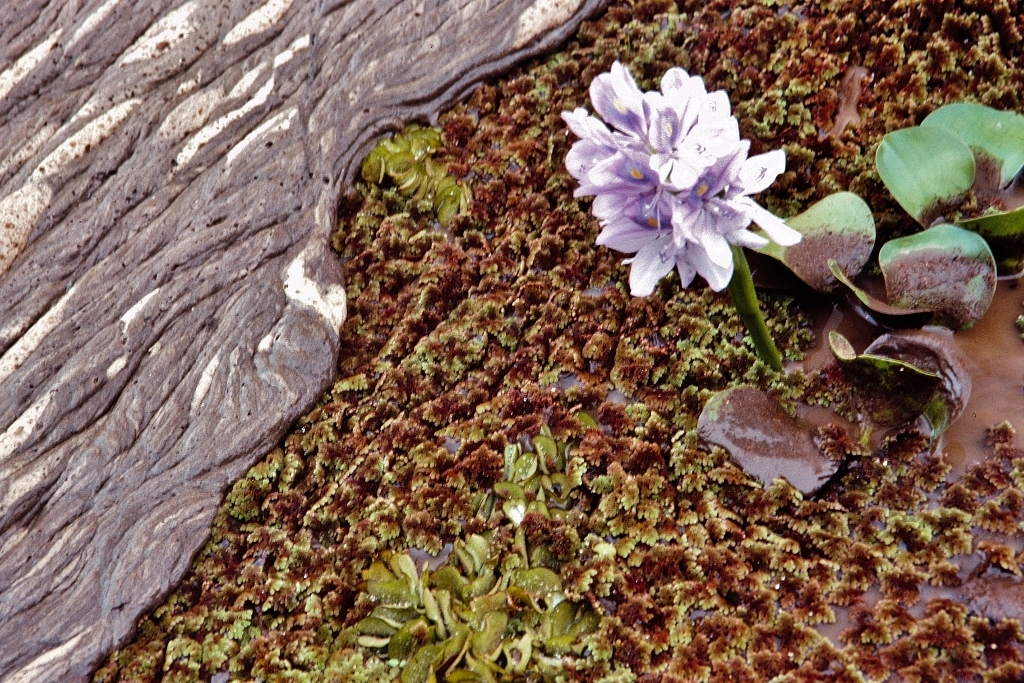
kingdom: Plantae
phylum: Tracheophyta
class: Polypodiopsida
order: Salviniales
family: Salviniaceae
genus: Salvinia
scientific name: Salvinia molesta
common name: Kariba weed
